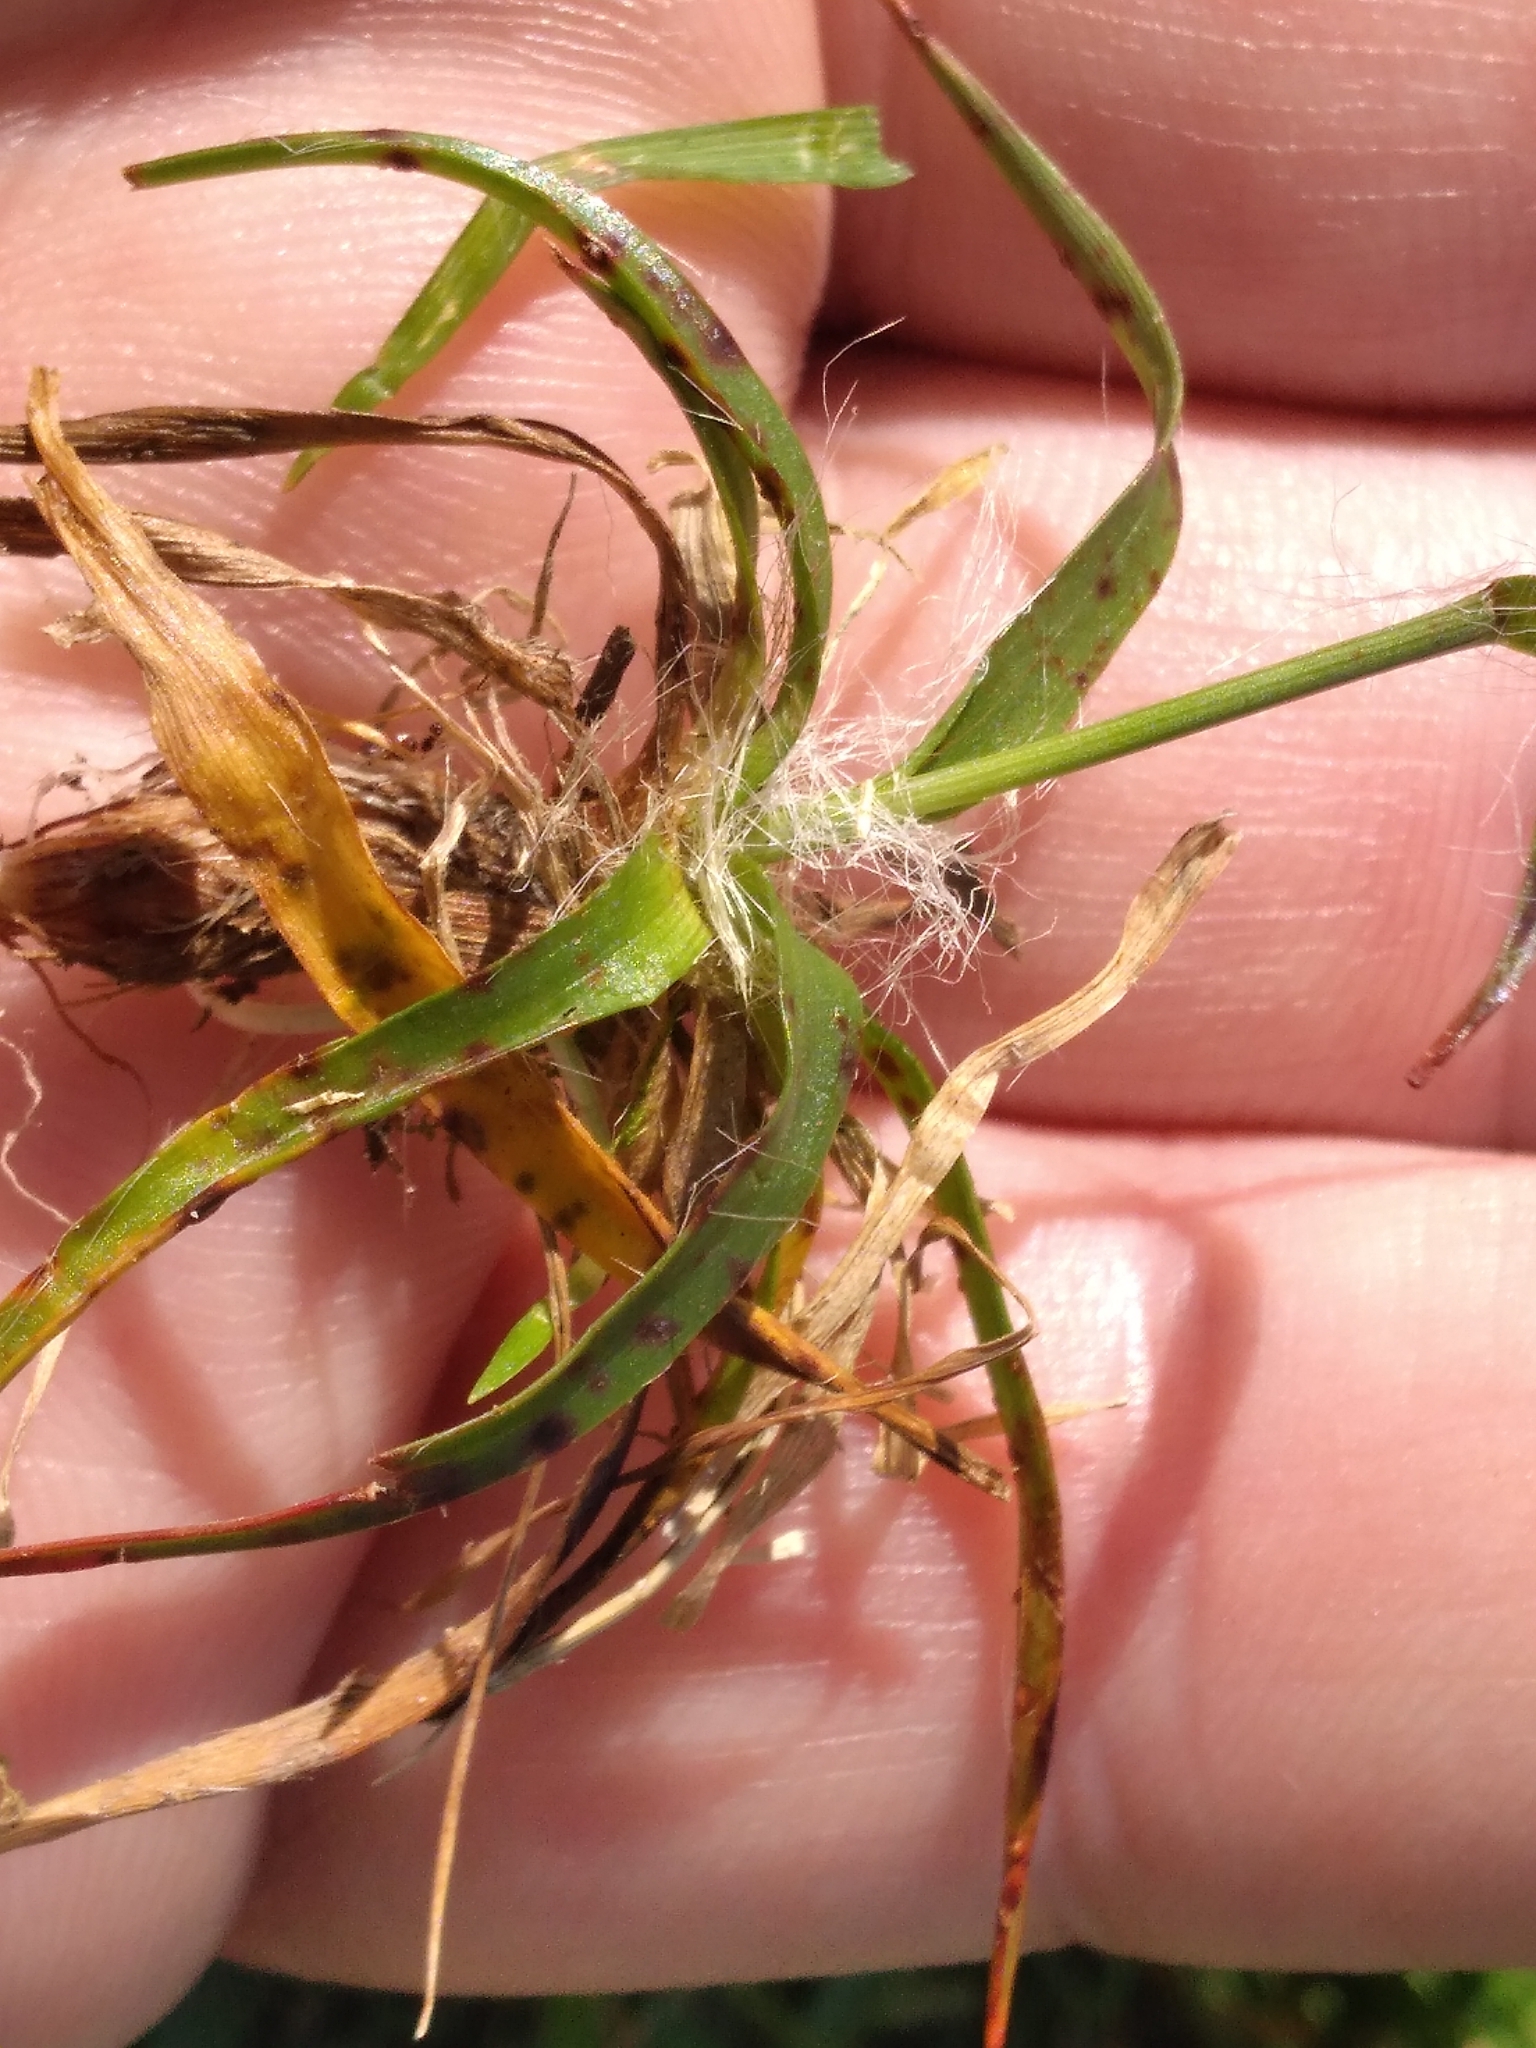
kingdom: Plantae
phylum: Tracheophyta
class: Liliopsida
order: Poales
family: Juncaceae
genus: Luzula
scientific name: Luzula campestris
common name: Field wood-rush
